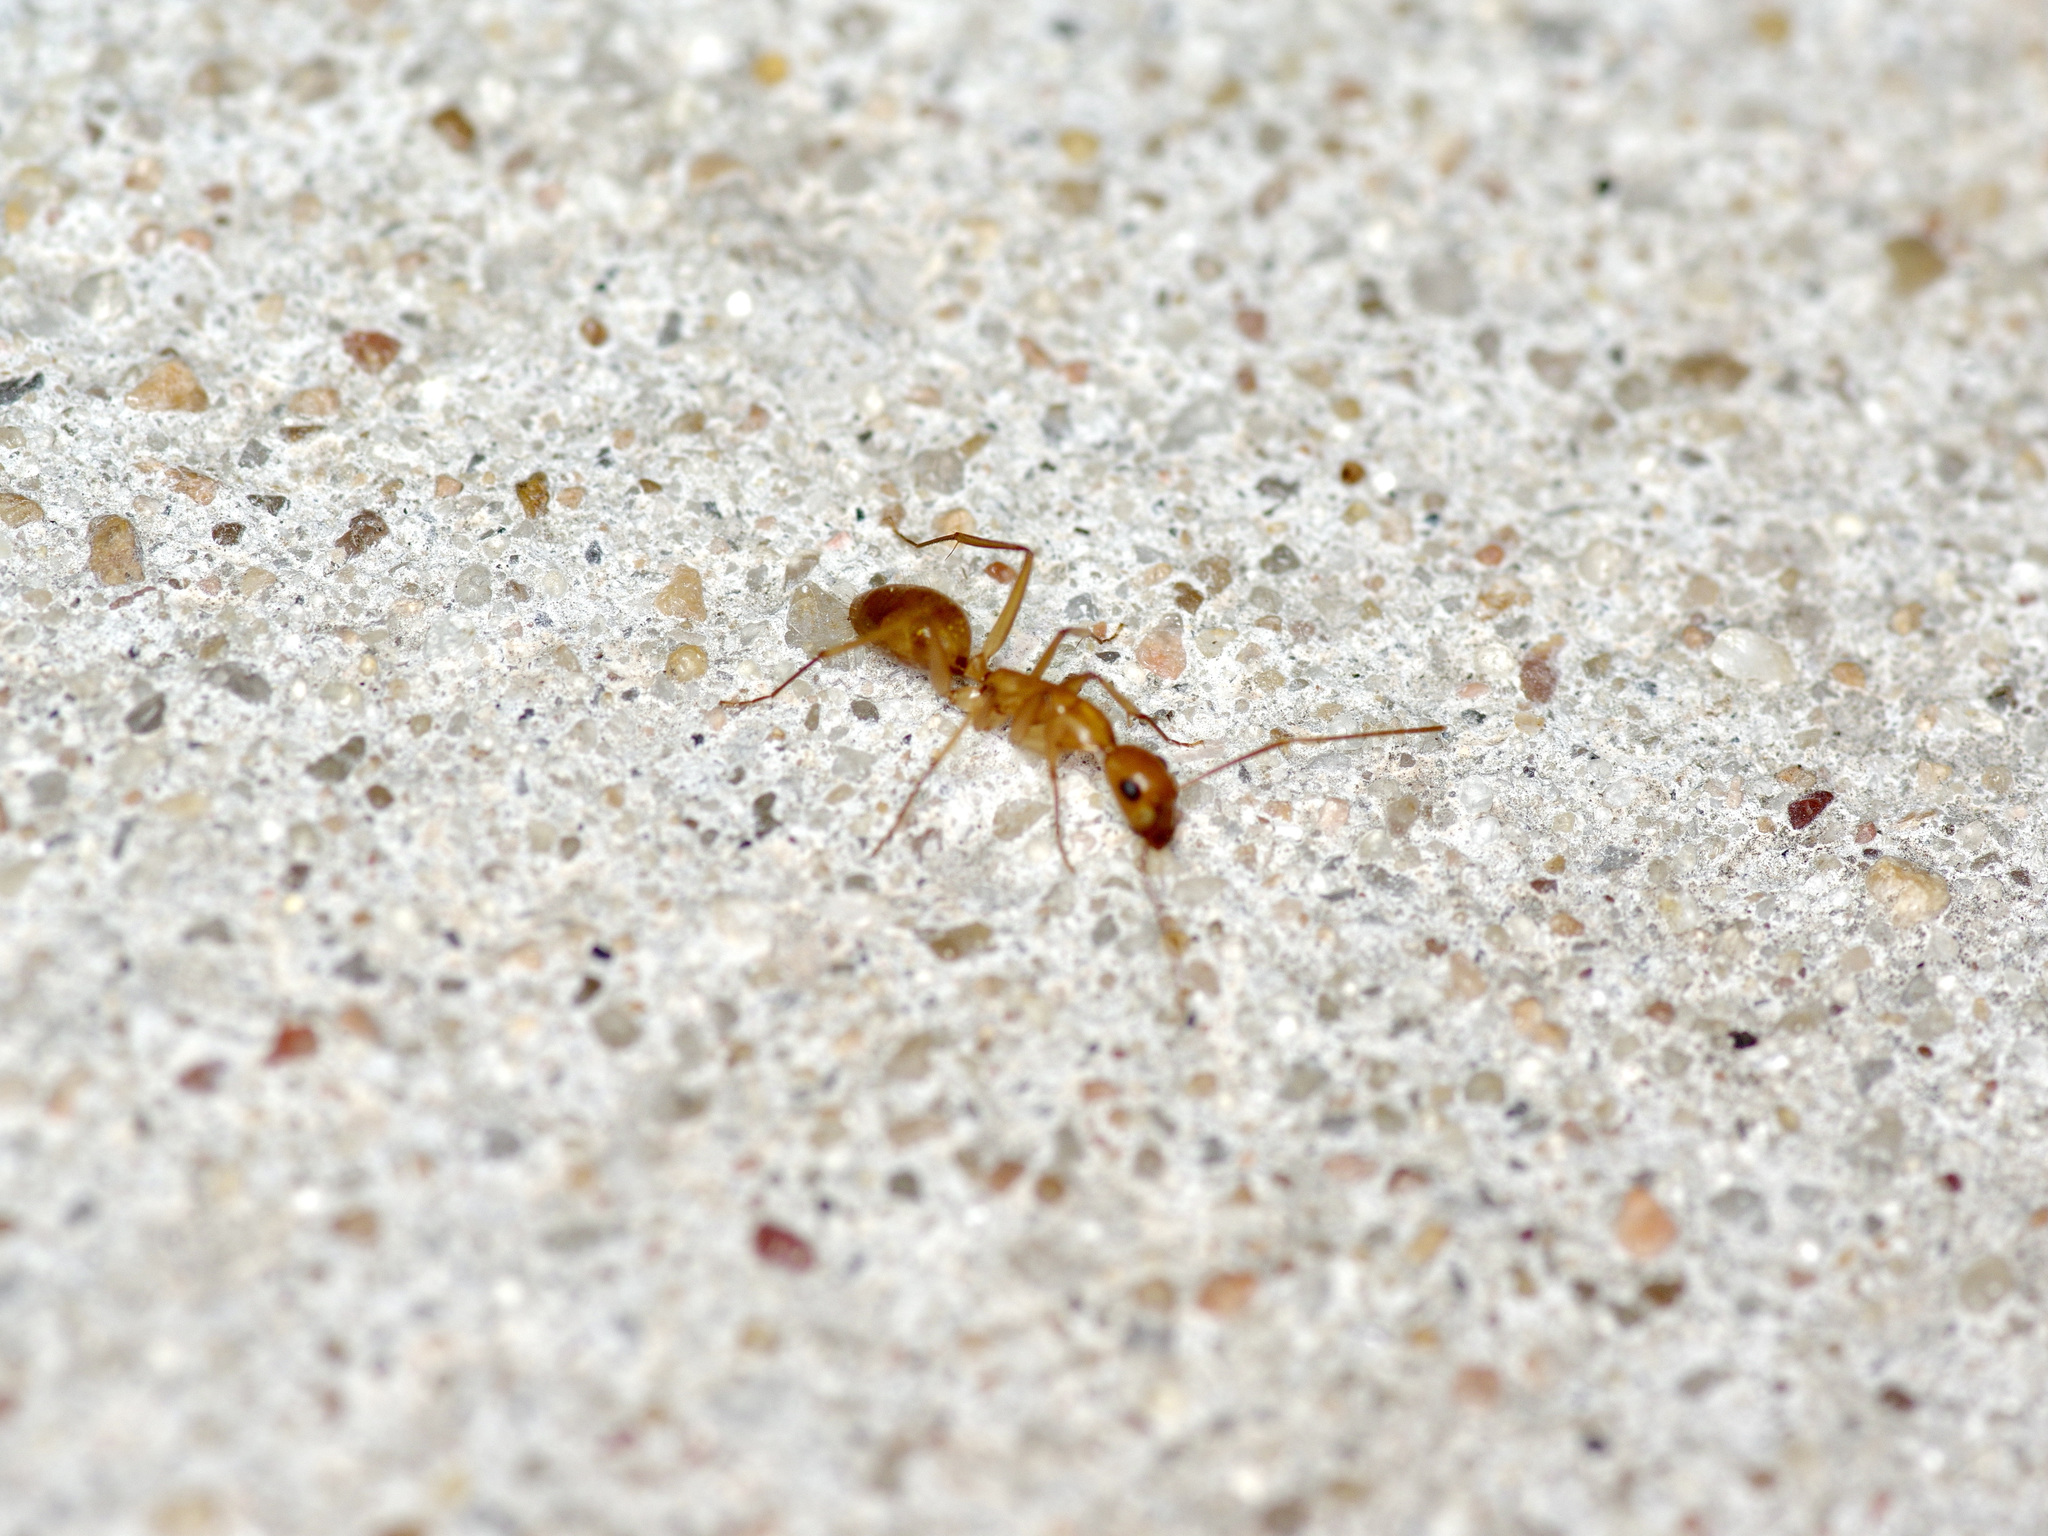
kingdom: Animalia
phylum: Arthropoda
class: Insecta
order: Hymenoptera
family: Formicidae
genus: Camponotus
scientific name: Camponotus festinatus
